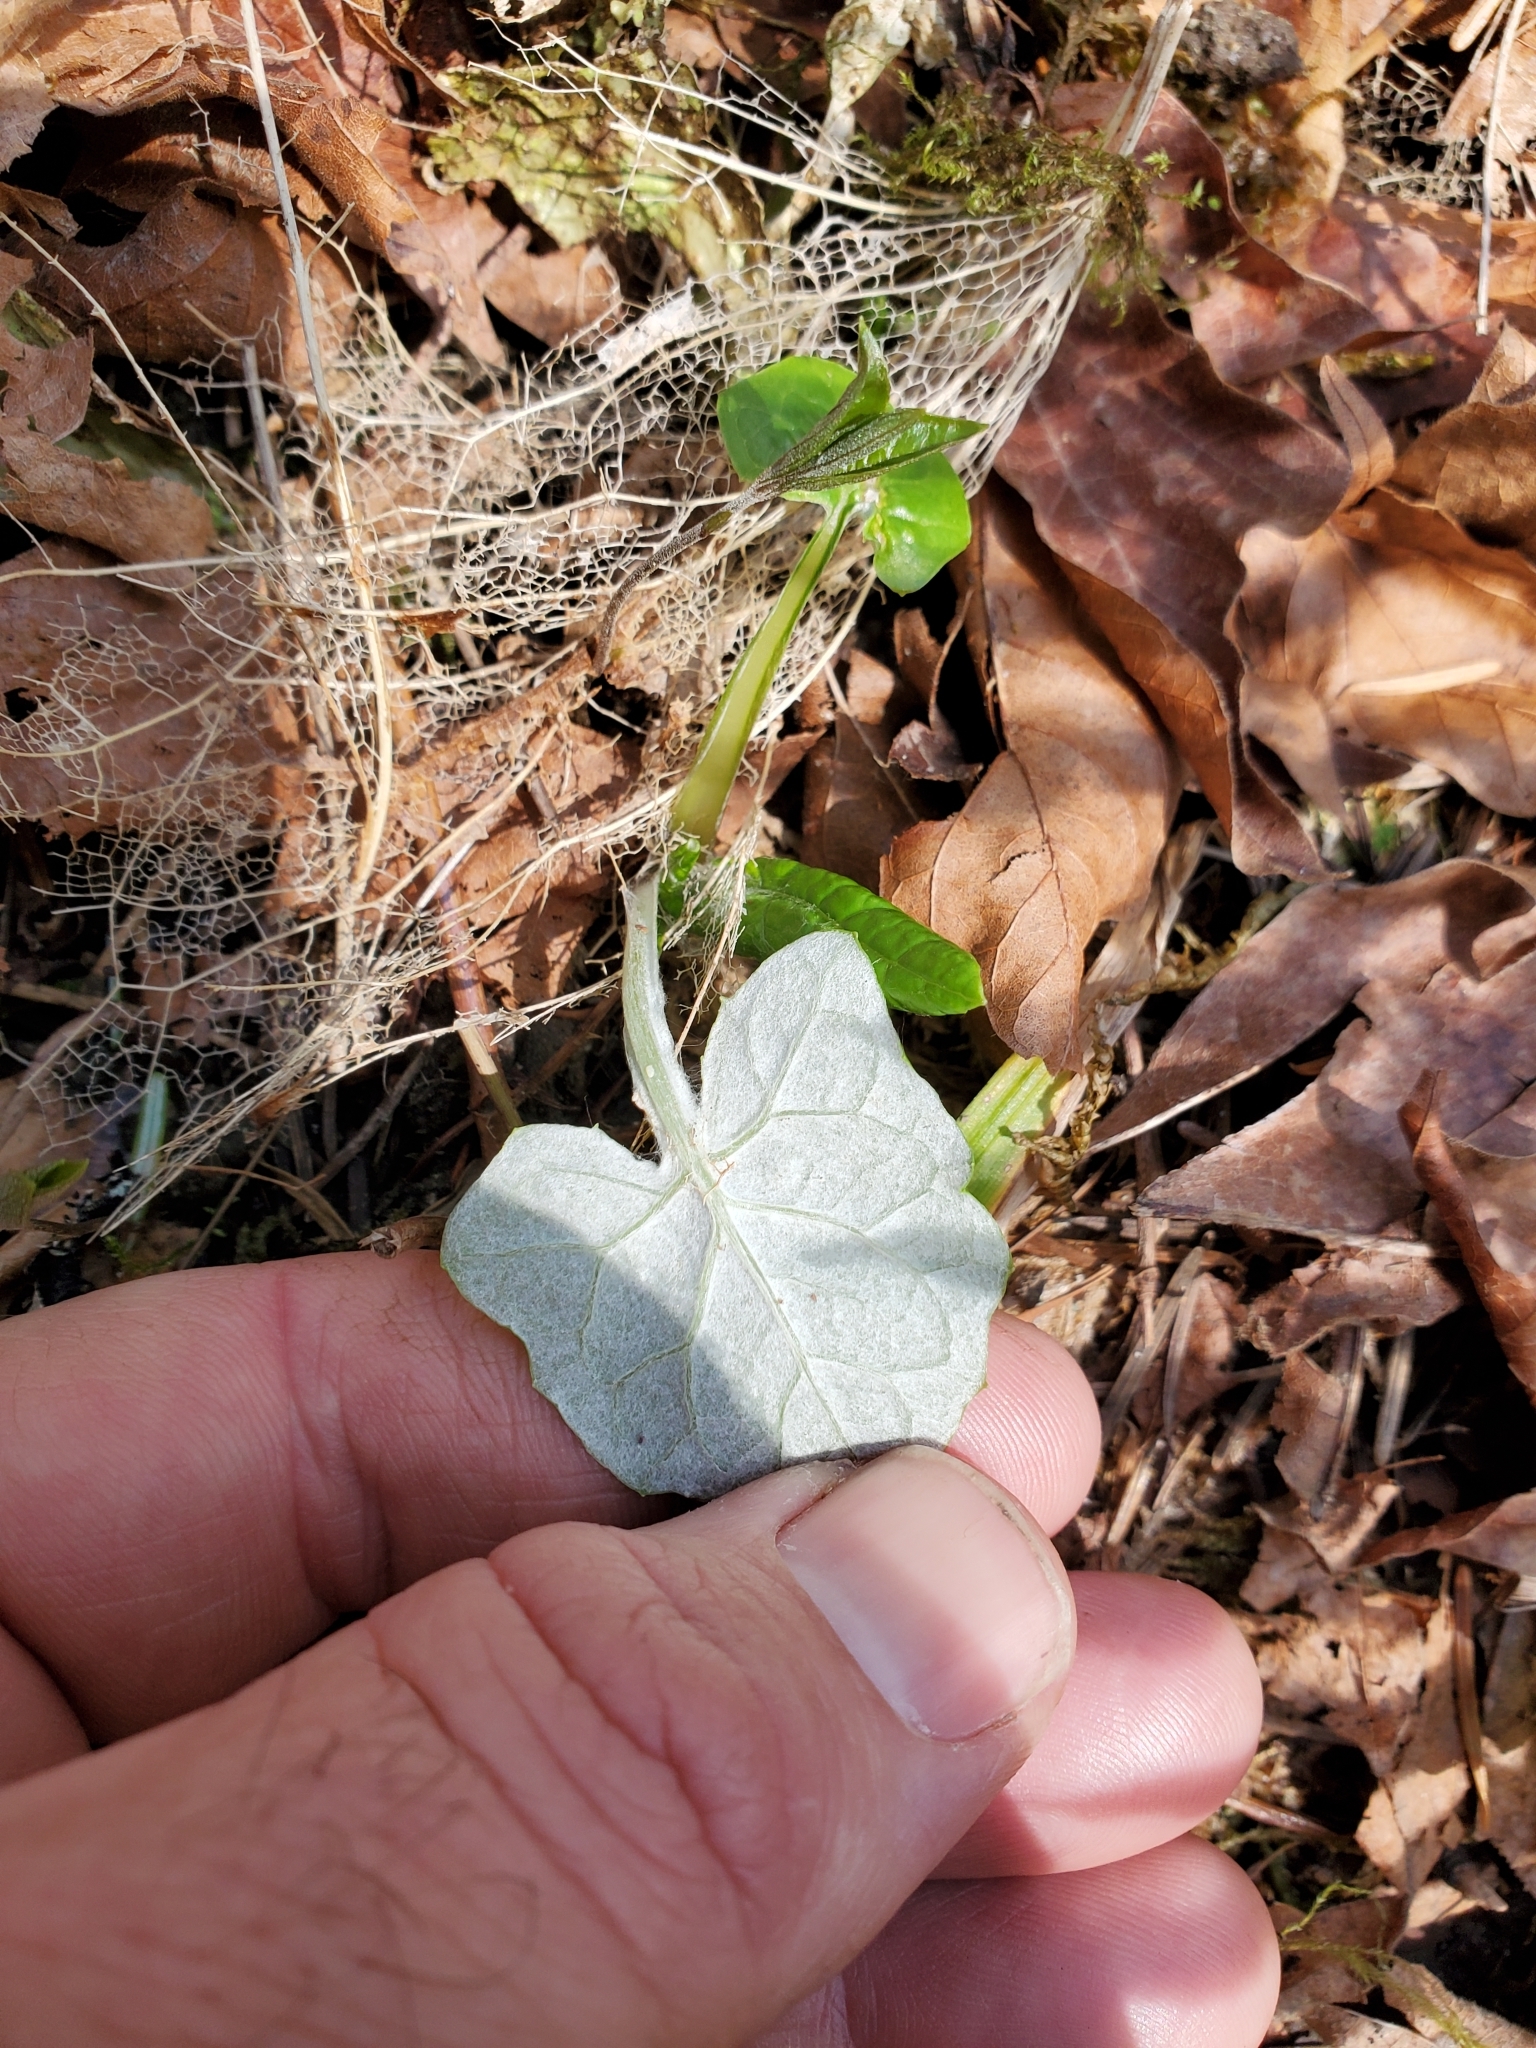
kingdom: Plantae
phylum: Tracheophyta
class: Magnoliopsida
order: Asterales
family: Asteraceae
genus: Adenocaulon
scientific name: Adenocaulon bicolor
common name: Trailplant
